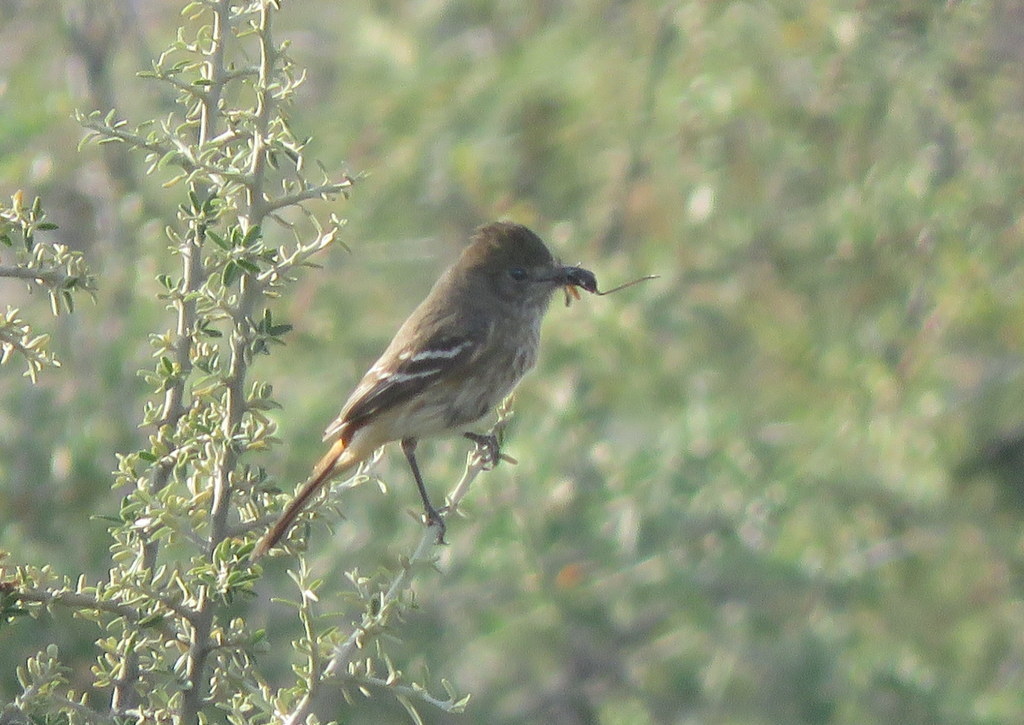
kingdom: Animalia
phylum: Chordata
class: Aves
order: Passeriformes
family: Tyrannidae
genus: Knipolegus
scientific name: Knipolegus hudsoni
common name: Hudson's black tyrant
